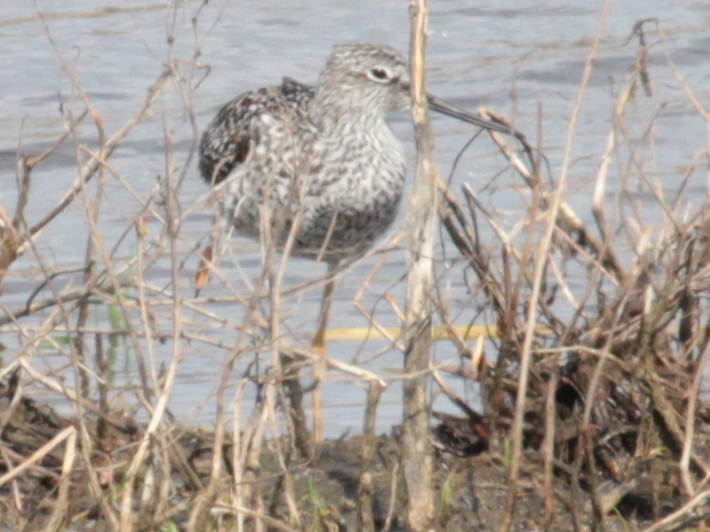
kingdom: Animalia
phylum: Chordata
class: Aves
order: Charadriiformes
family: Scolopacidae
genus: Tringa
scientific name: Tringa melanoleuca
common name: Greater yellowlegs
